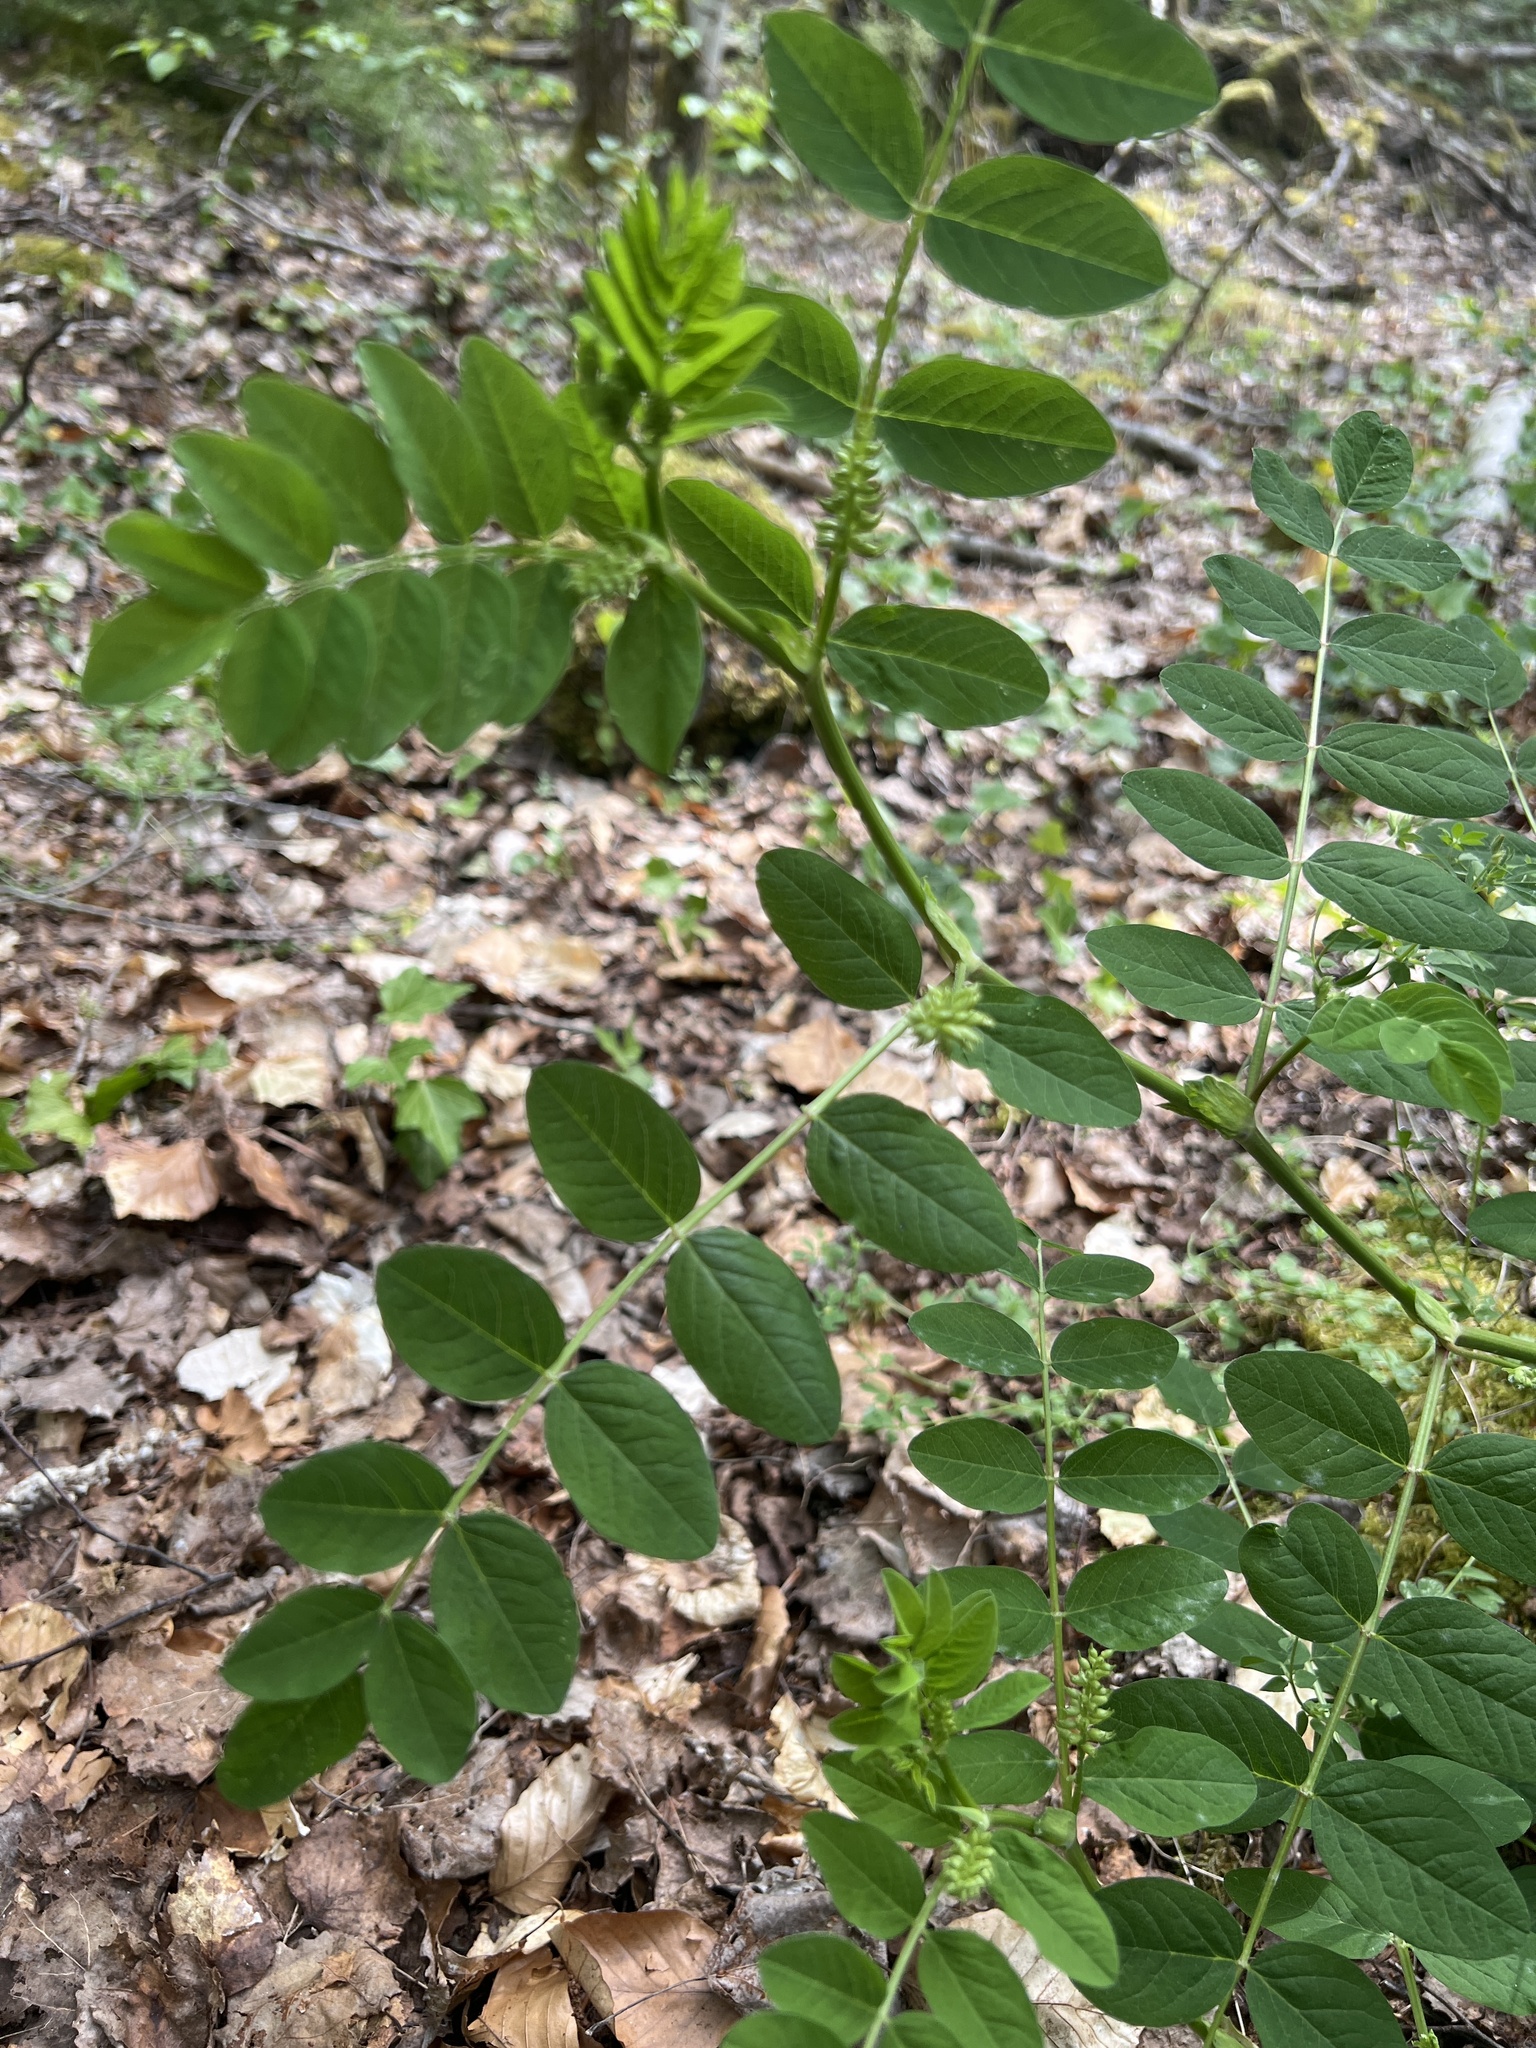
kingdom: Plantae
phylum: Tracheophyta
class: Magnoliopsida
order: Fabales
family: Fabaceae
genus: Astragalus
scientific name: Astragalus glycyphyllos
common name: Wild liquorice
